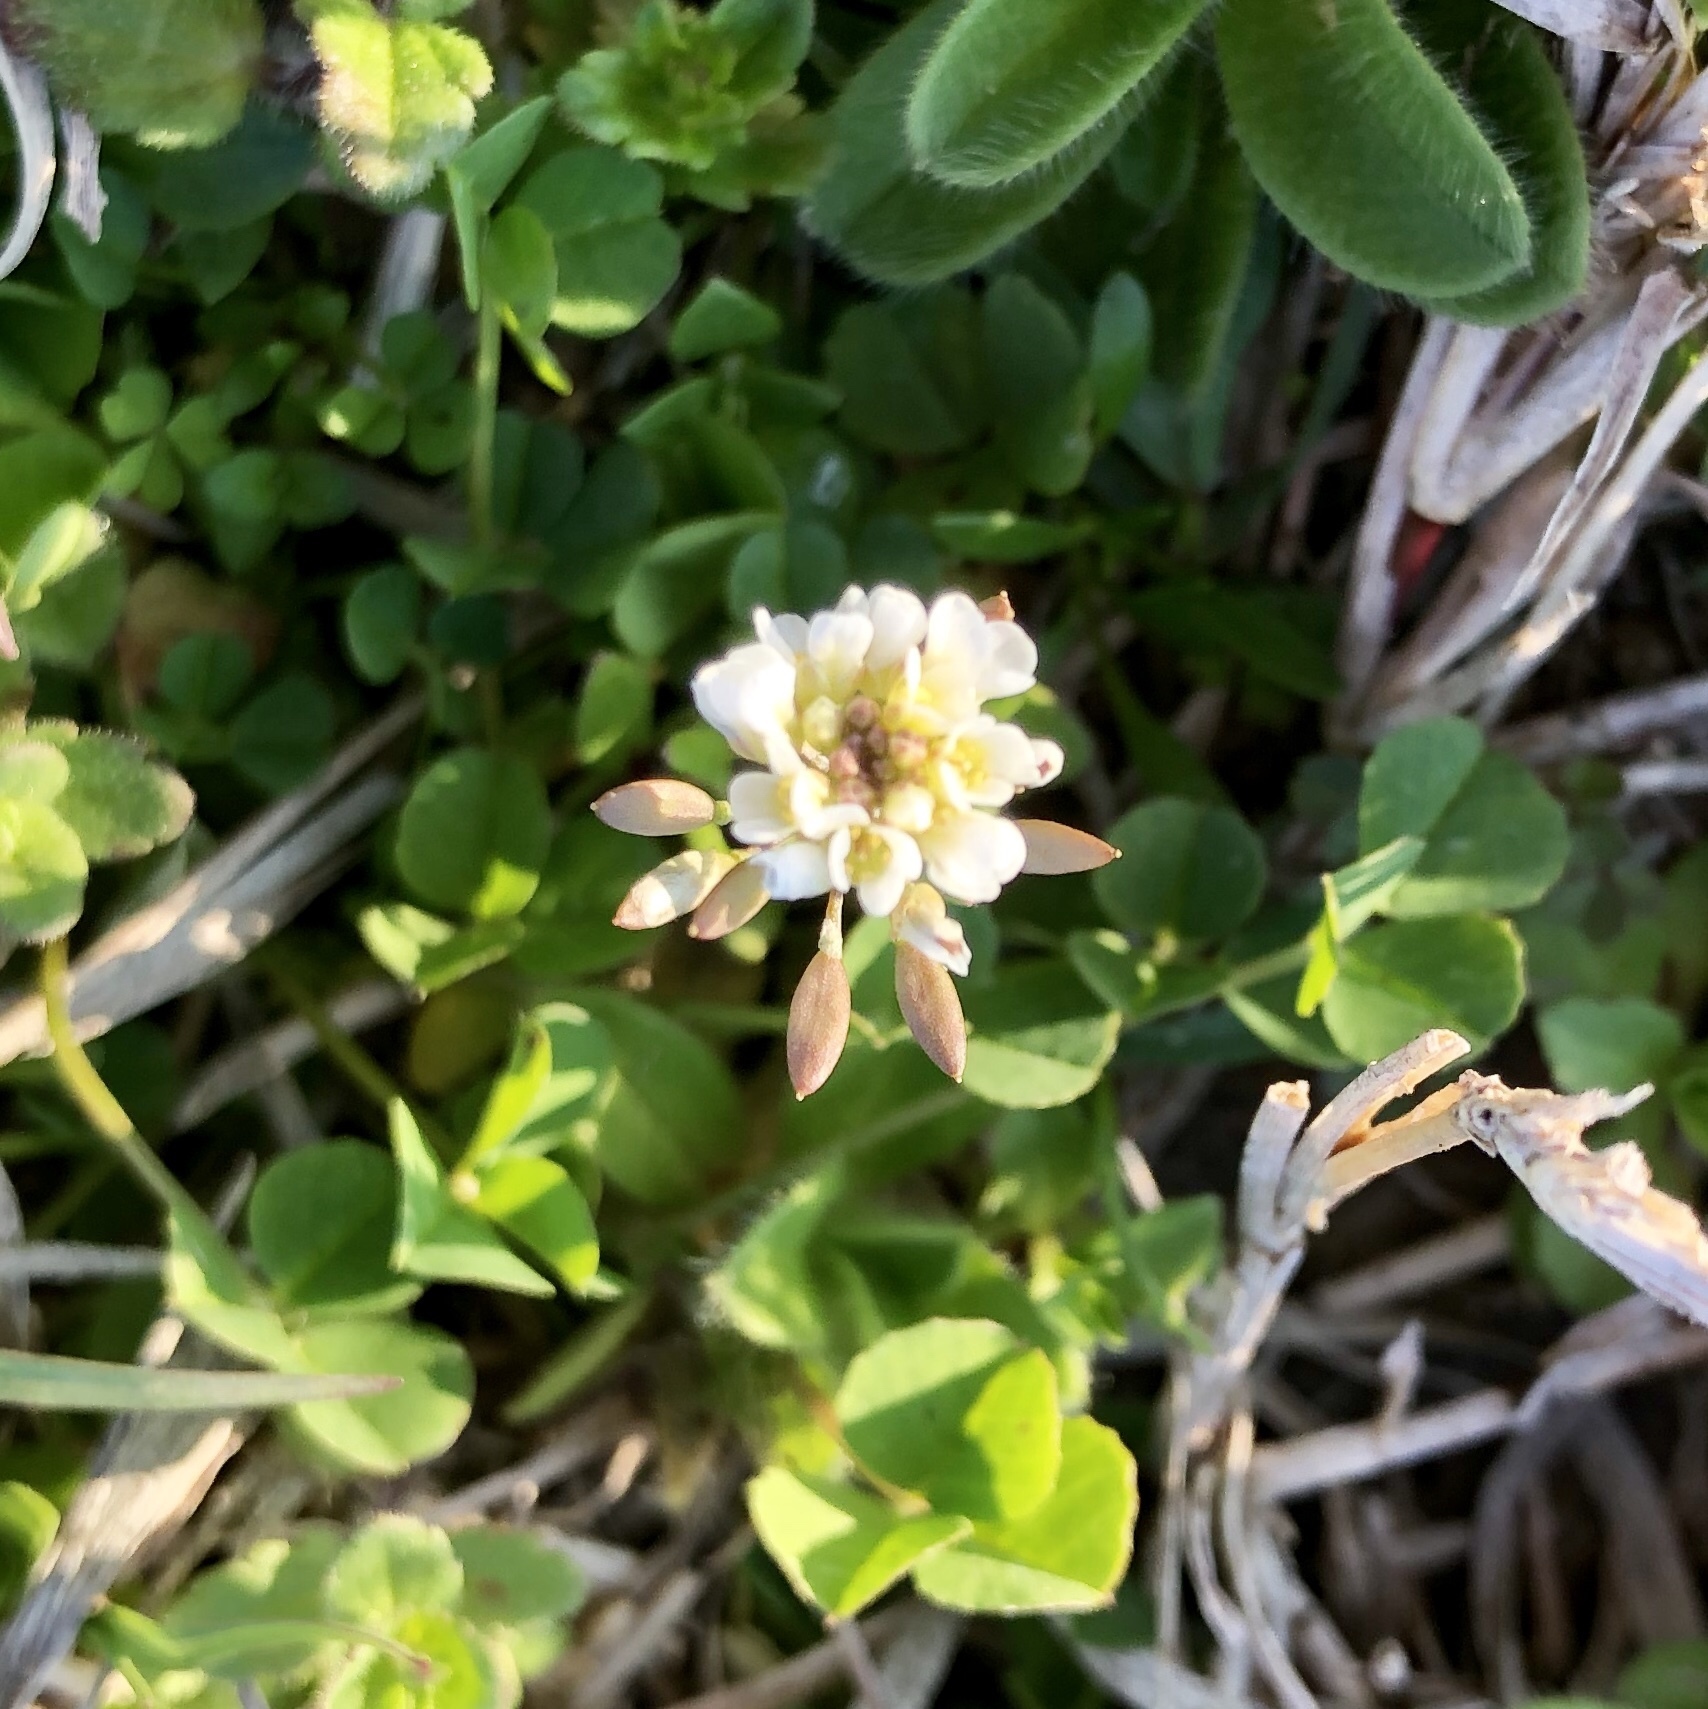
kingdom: Plantae
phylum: Tracheophyta
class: Magnoliopsida
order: Fabales
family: Fabaceae
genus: Trifolium
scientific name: Trifolium repens
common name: White clover
